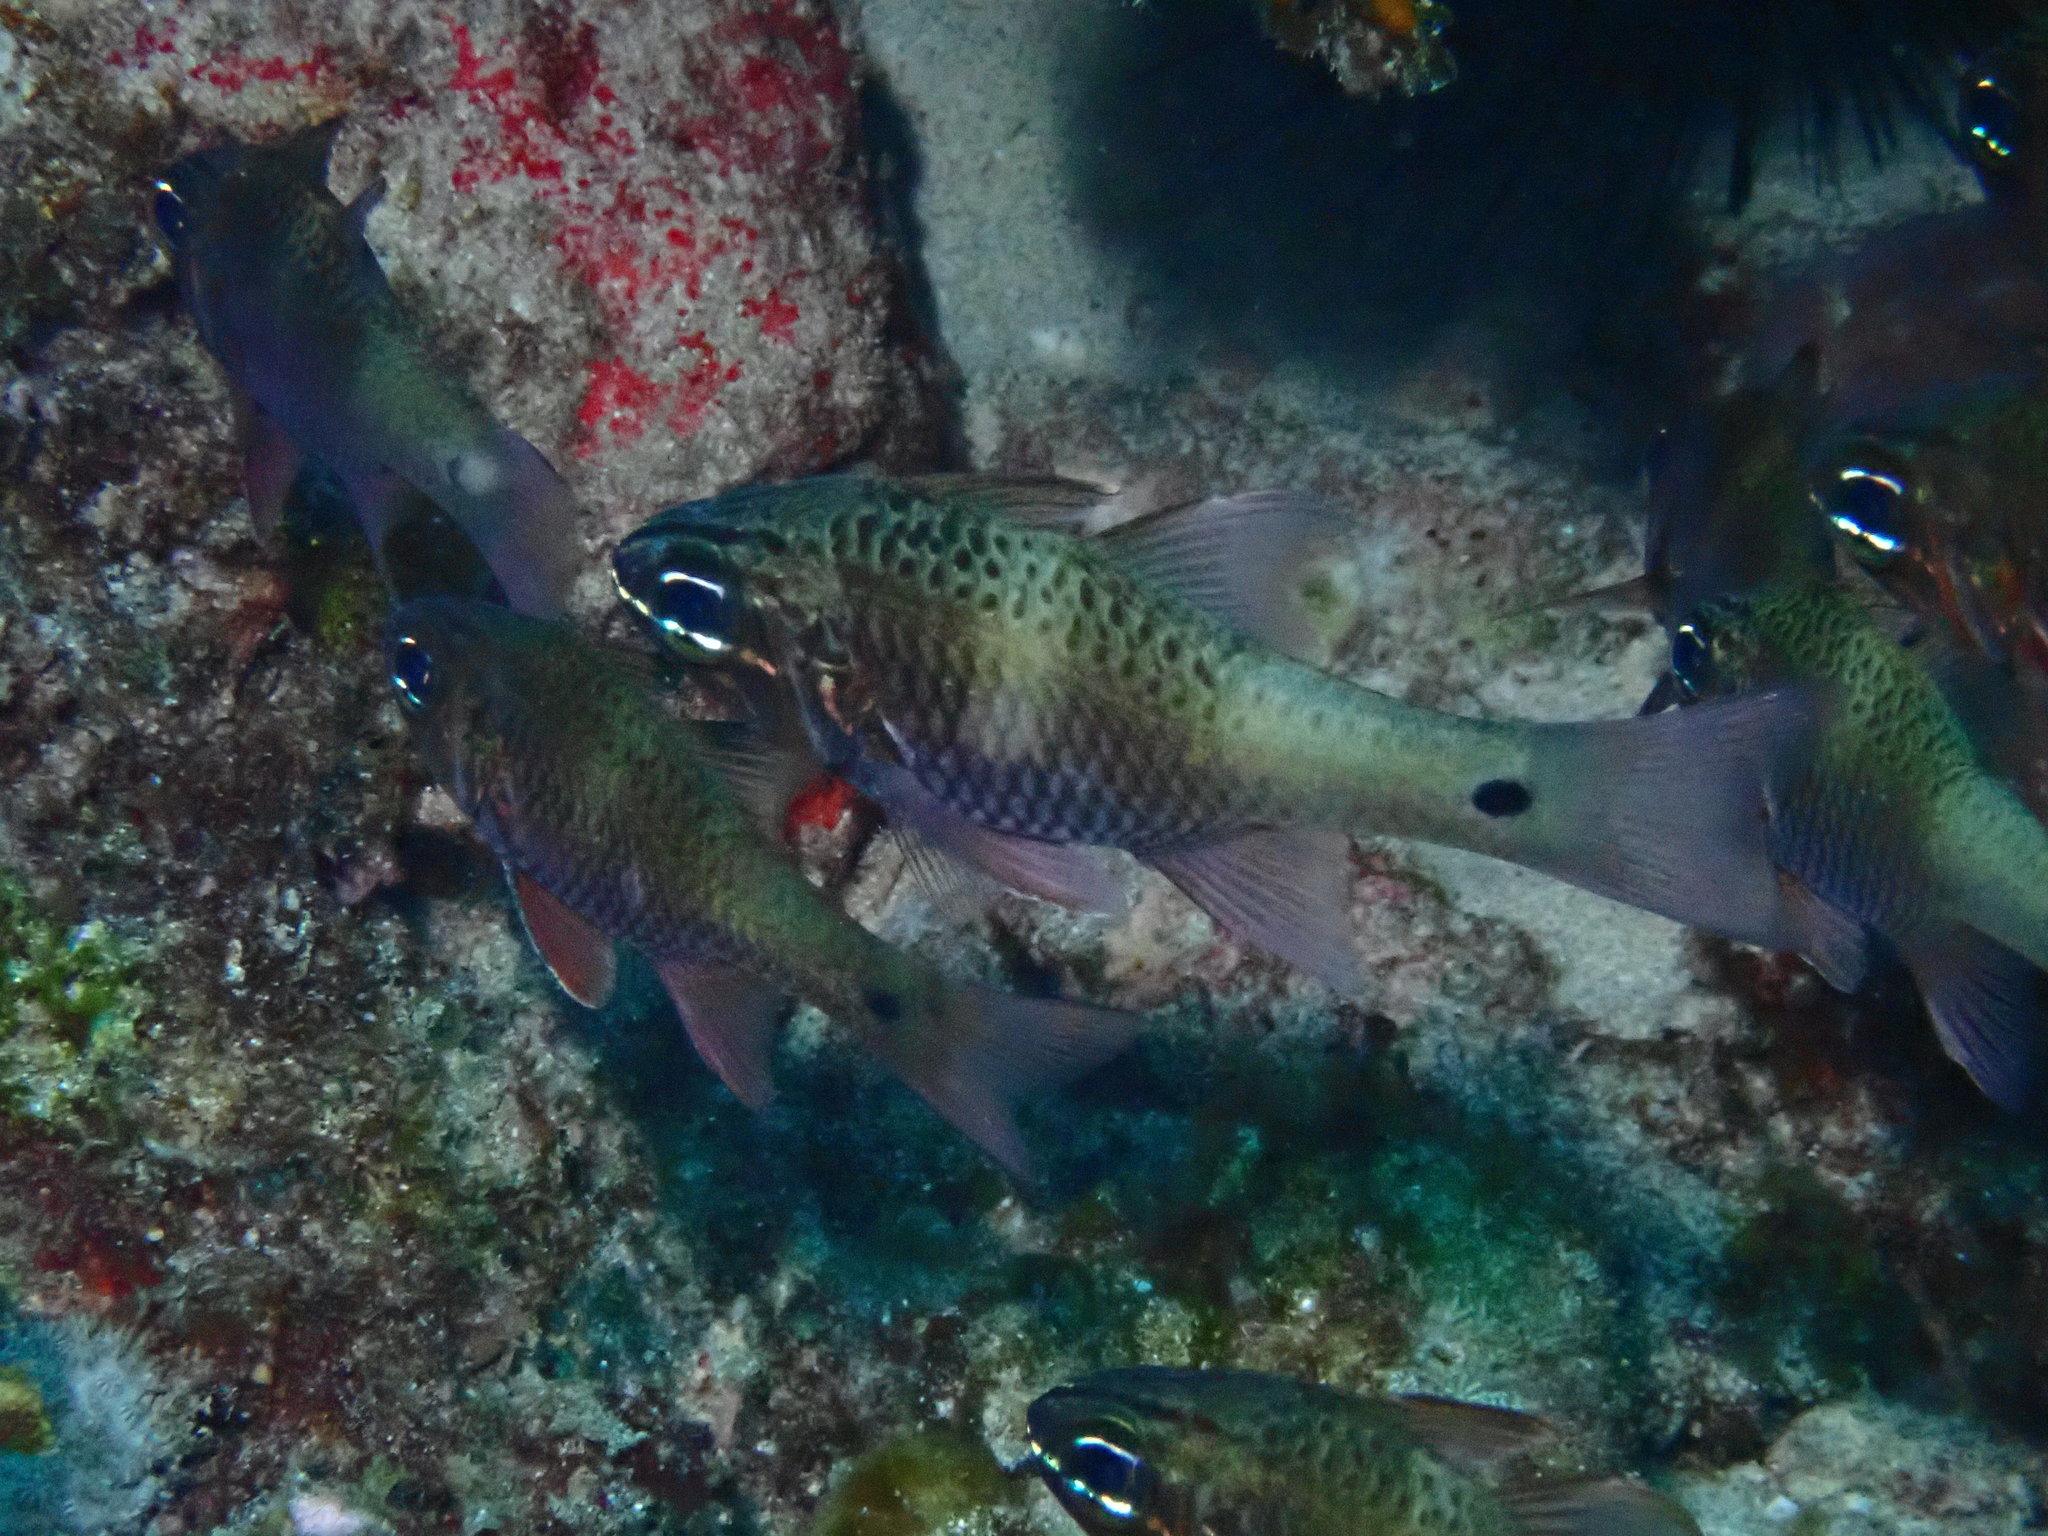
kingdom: Animalia
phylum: Chordata
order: Perciformes
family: Apogonidae
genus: Ostorhinchus
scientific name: Ostorhinchus norfolcensis
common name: Norfolk cardinalfish
